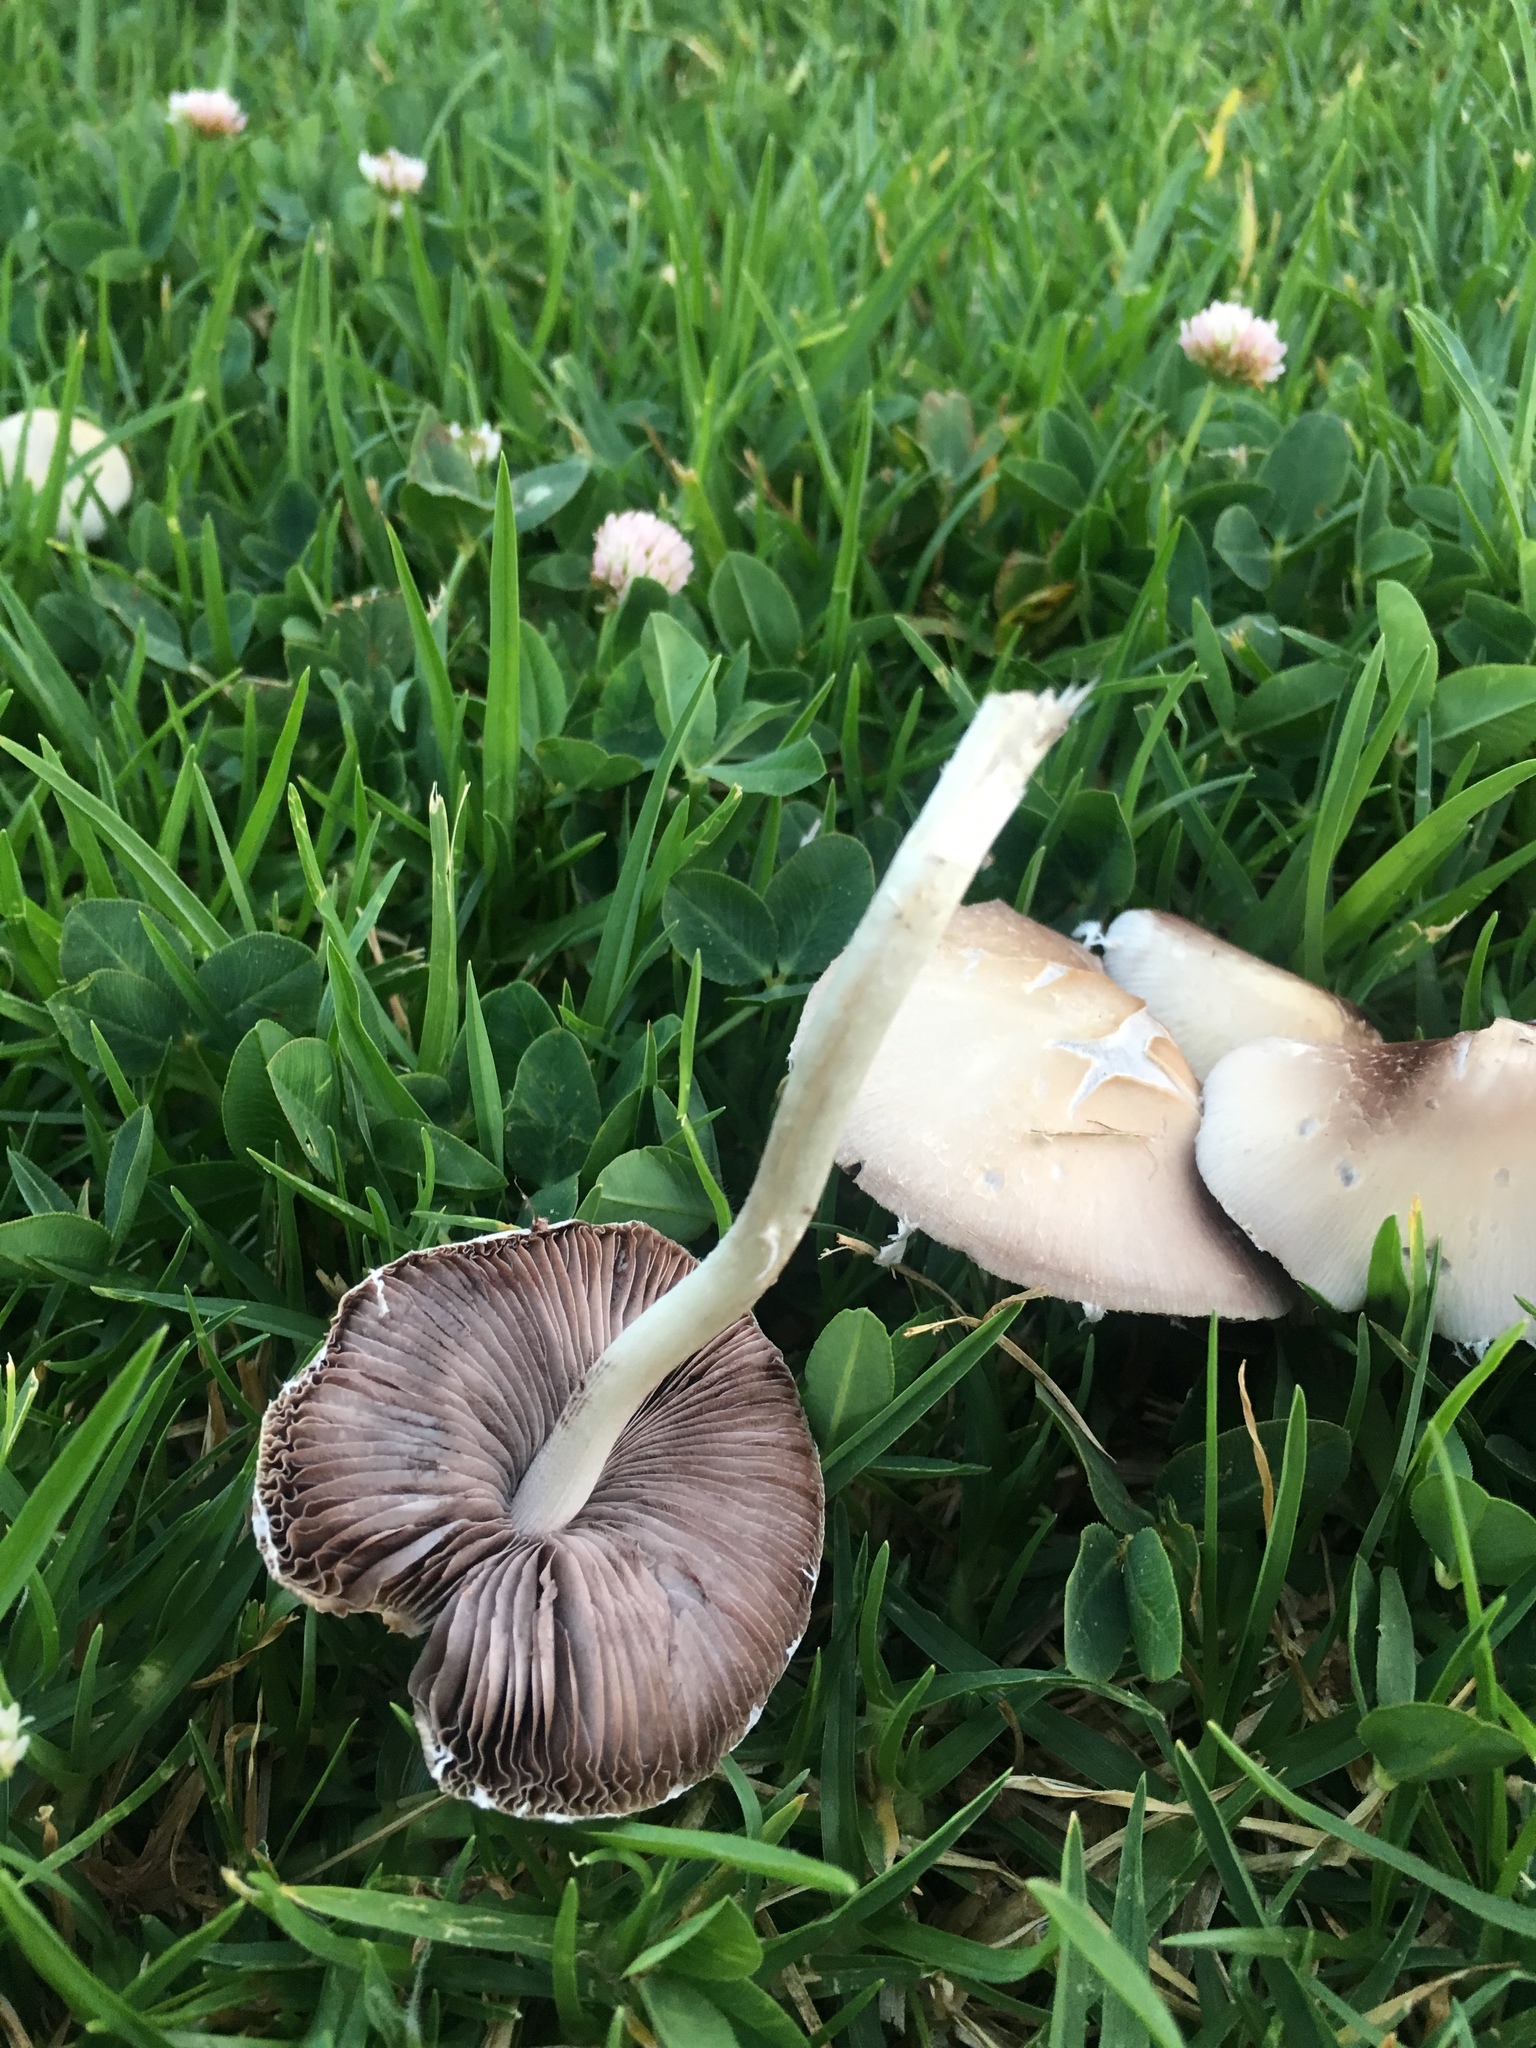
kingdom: Fungi
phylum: Basidiomycota
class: Agaricomycetes
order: Agaricales
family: Psathyrellaceae
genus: Candolleomyces
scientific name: Candolleomyces candolleanus
